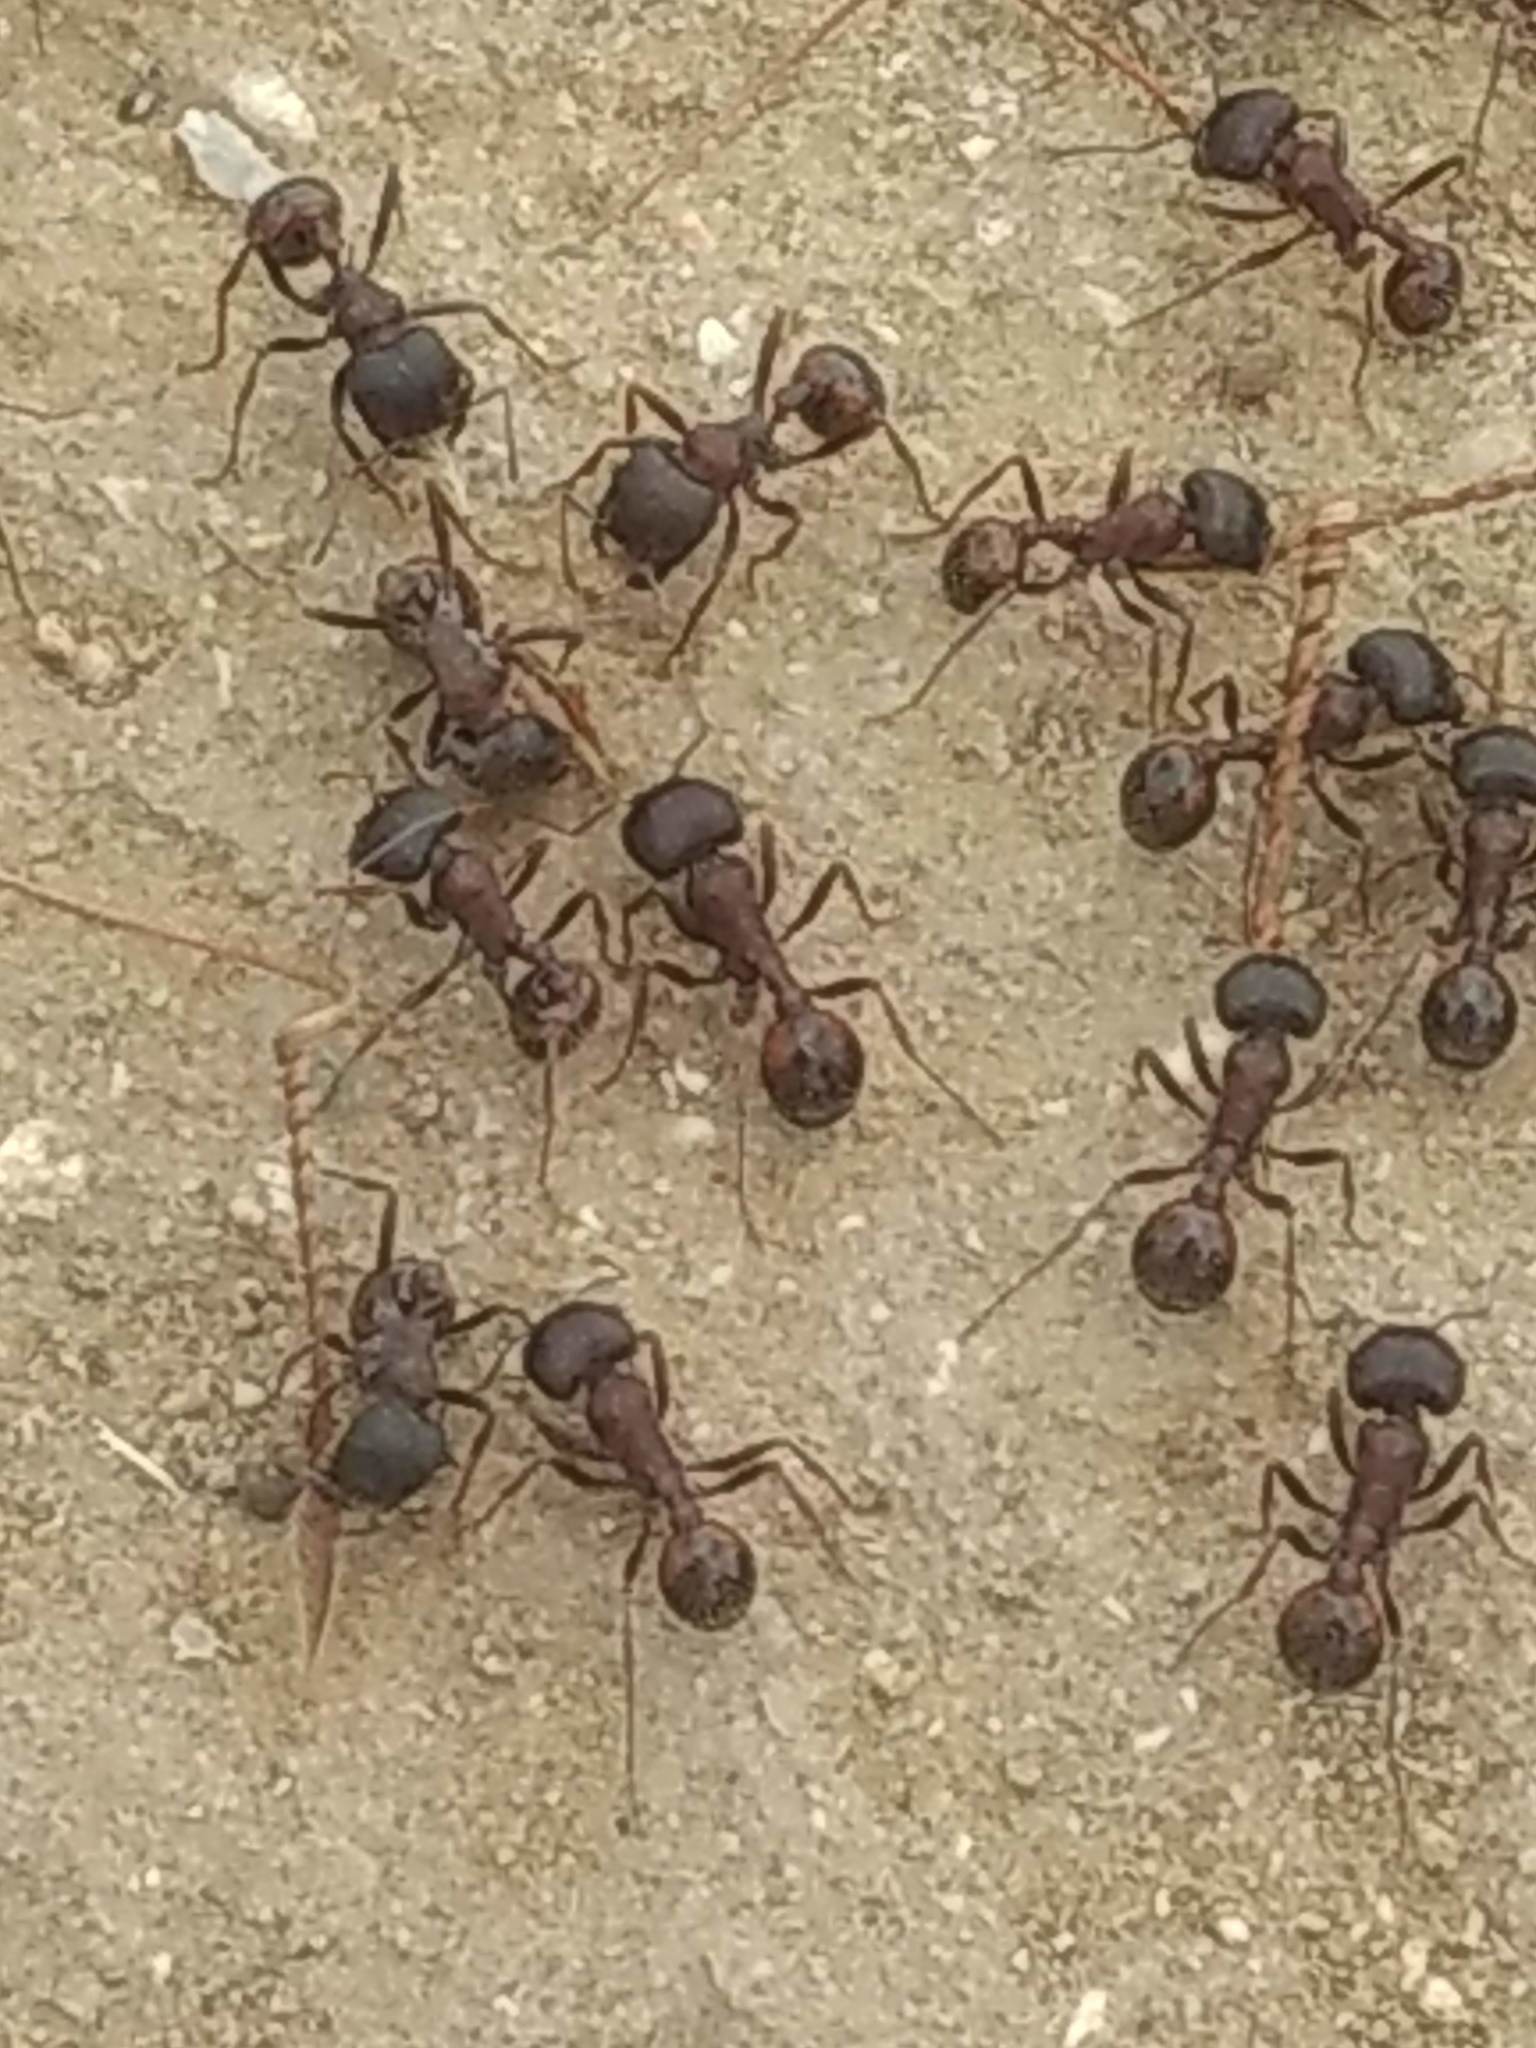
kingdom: Animalia
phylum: Arthropoda
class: Insecta
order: Hymenoptera
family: Formicidae
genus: Pogonomyrmex
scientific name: Pogonomyrmex rugosus
